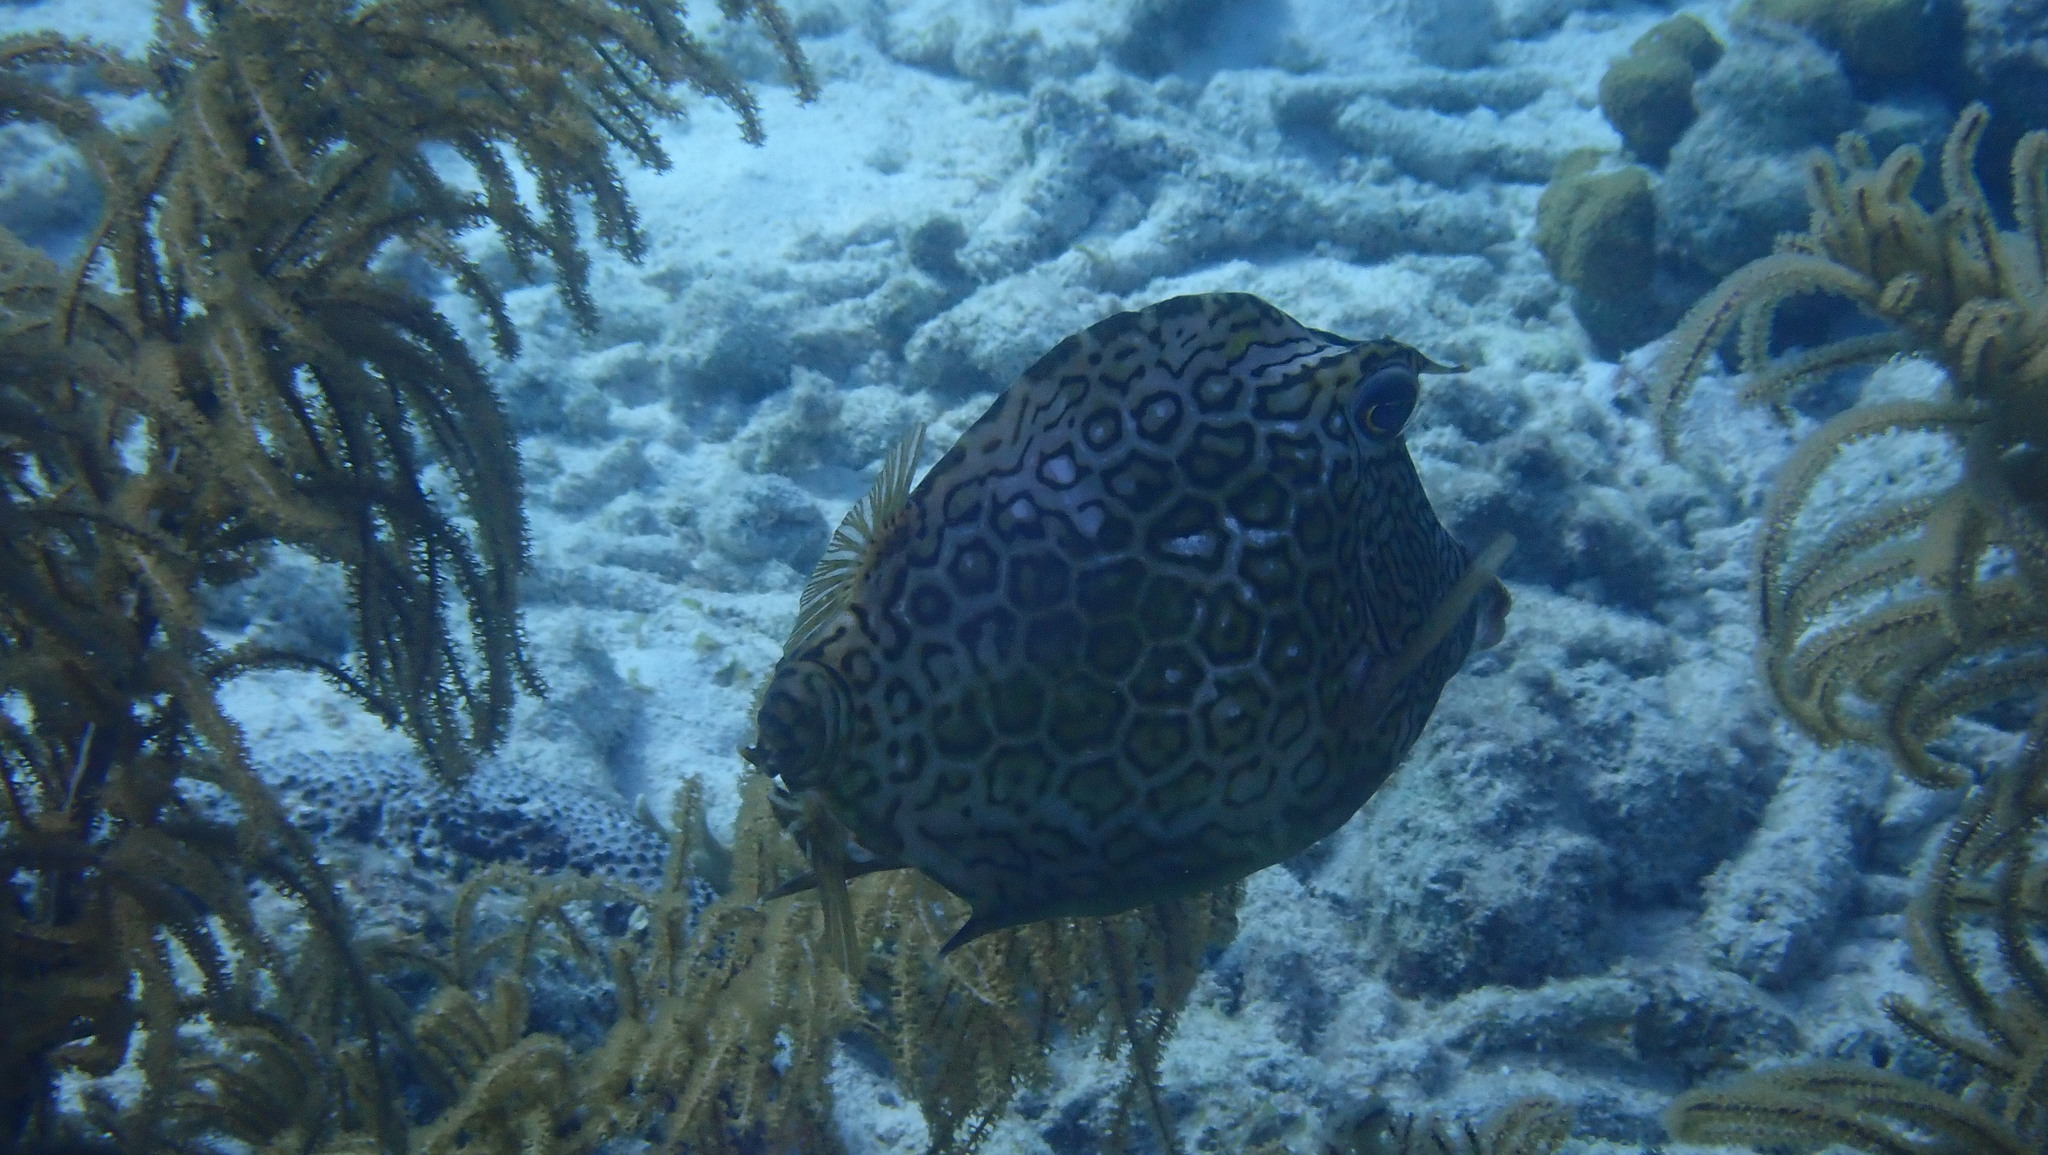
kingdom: Animalia
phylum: Chordata
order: Tetraodontiformes
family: Ostraciidae
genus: Acanthostracion
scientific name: Acanthostracion polygonius
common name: Honeycomb cowfish
